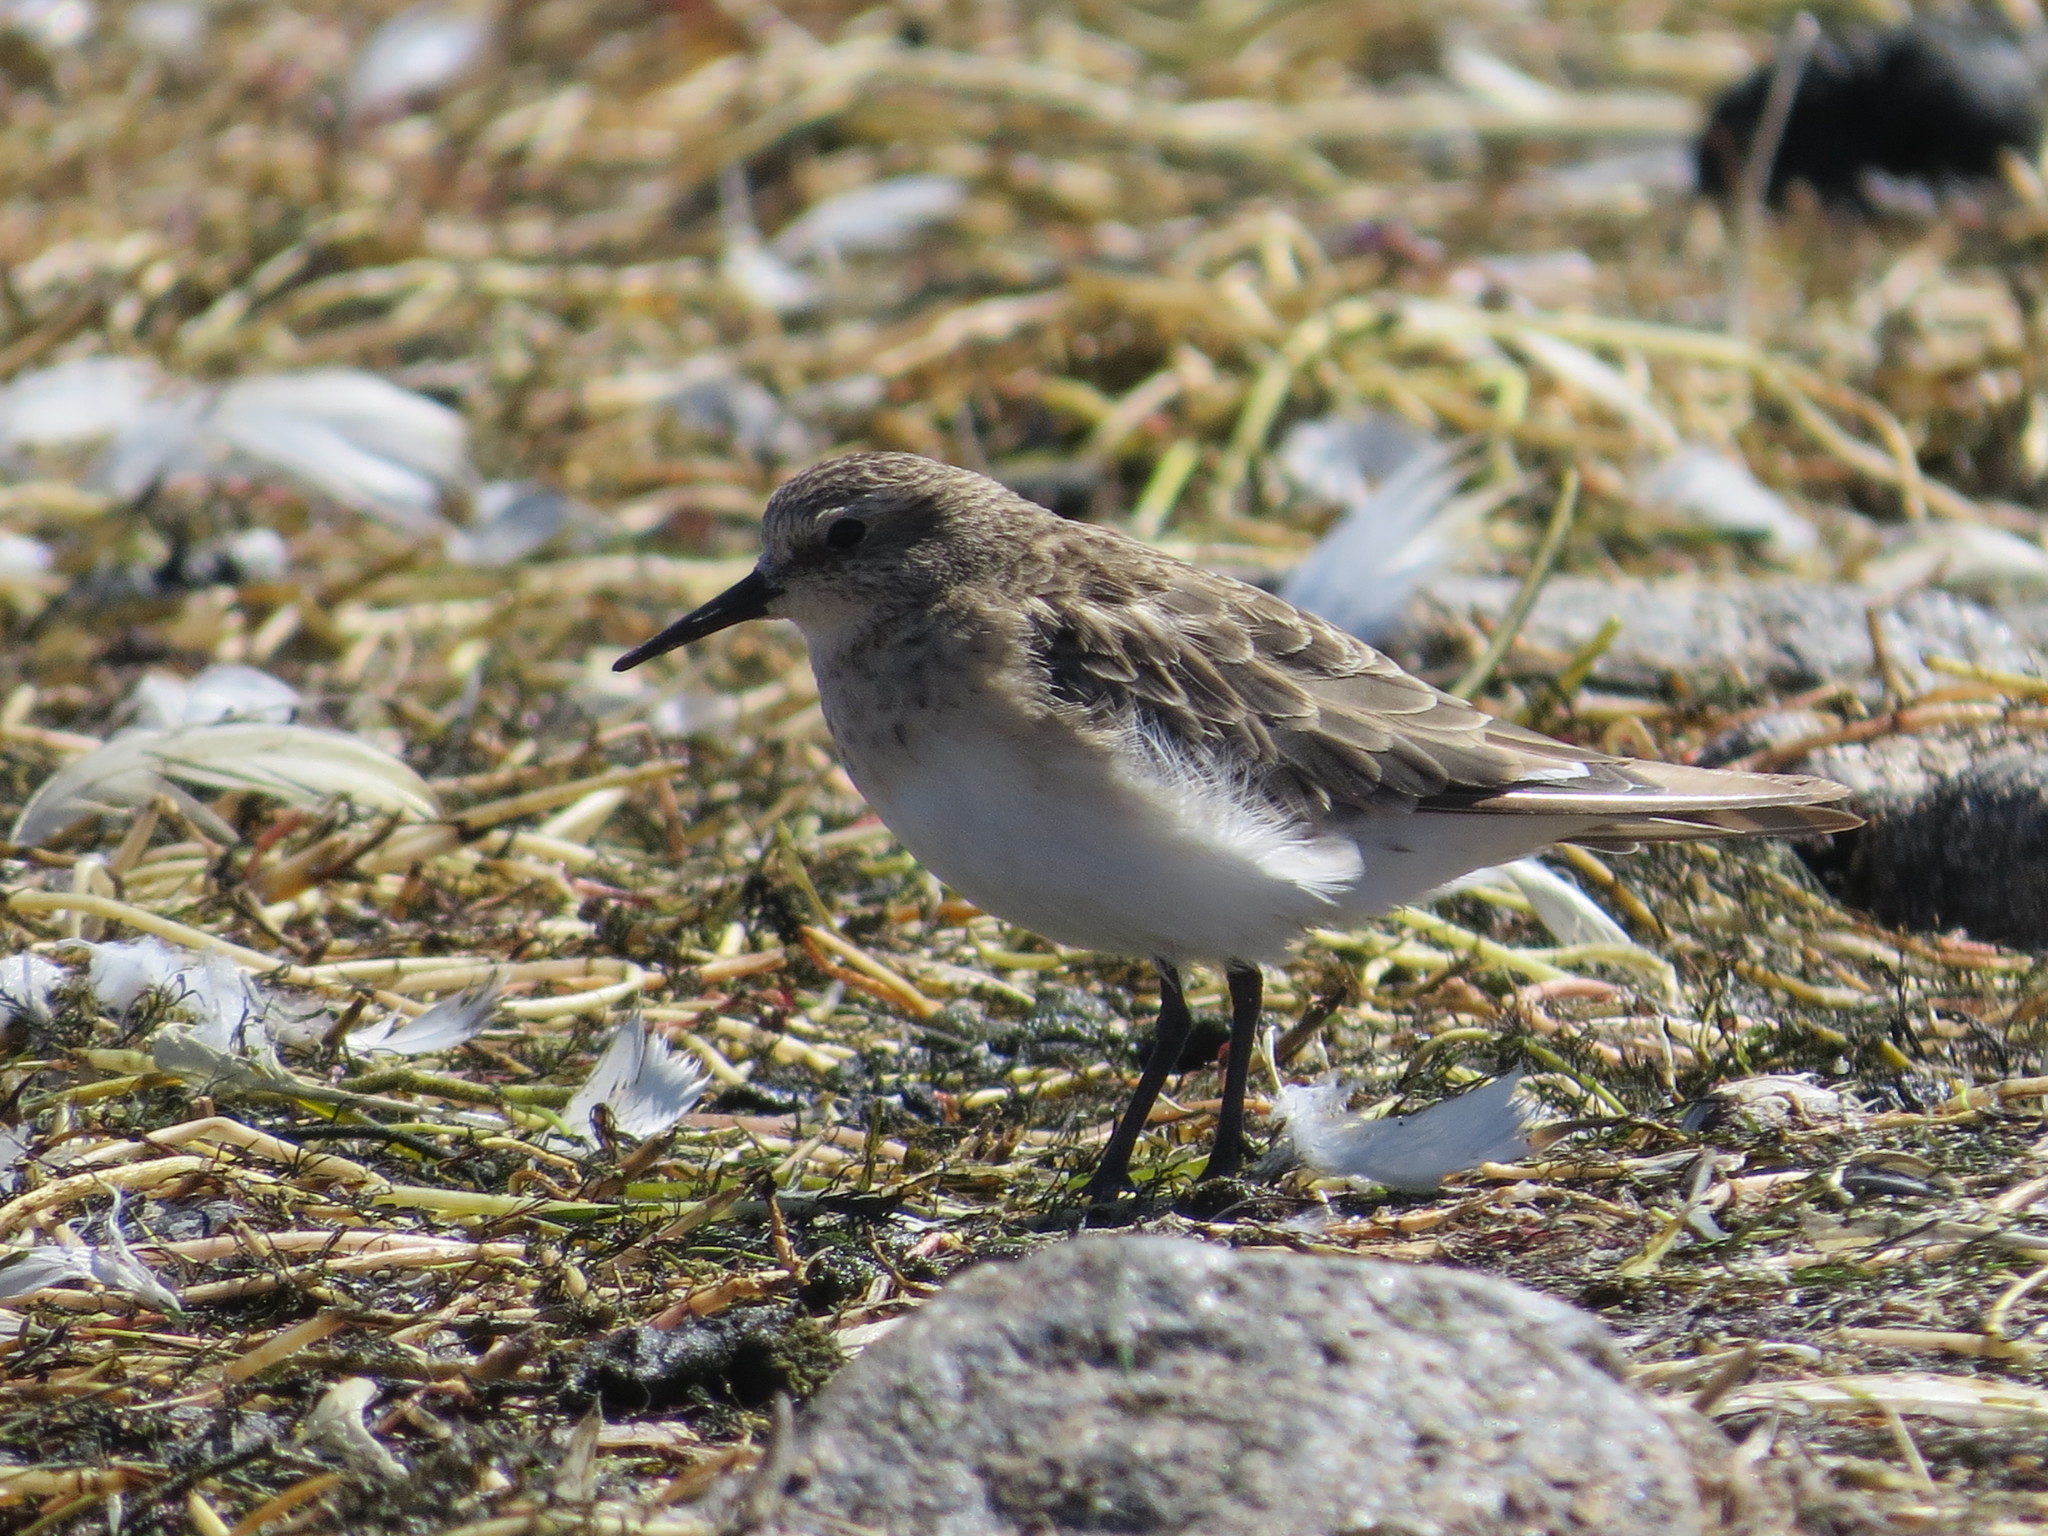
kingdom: Animalia
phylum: Chordata
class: Aves
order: Charadriiformes
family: Scolopacidae
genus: Calidris
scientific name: Calidris bairdii
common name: Baird's sandpiper
